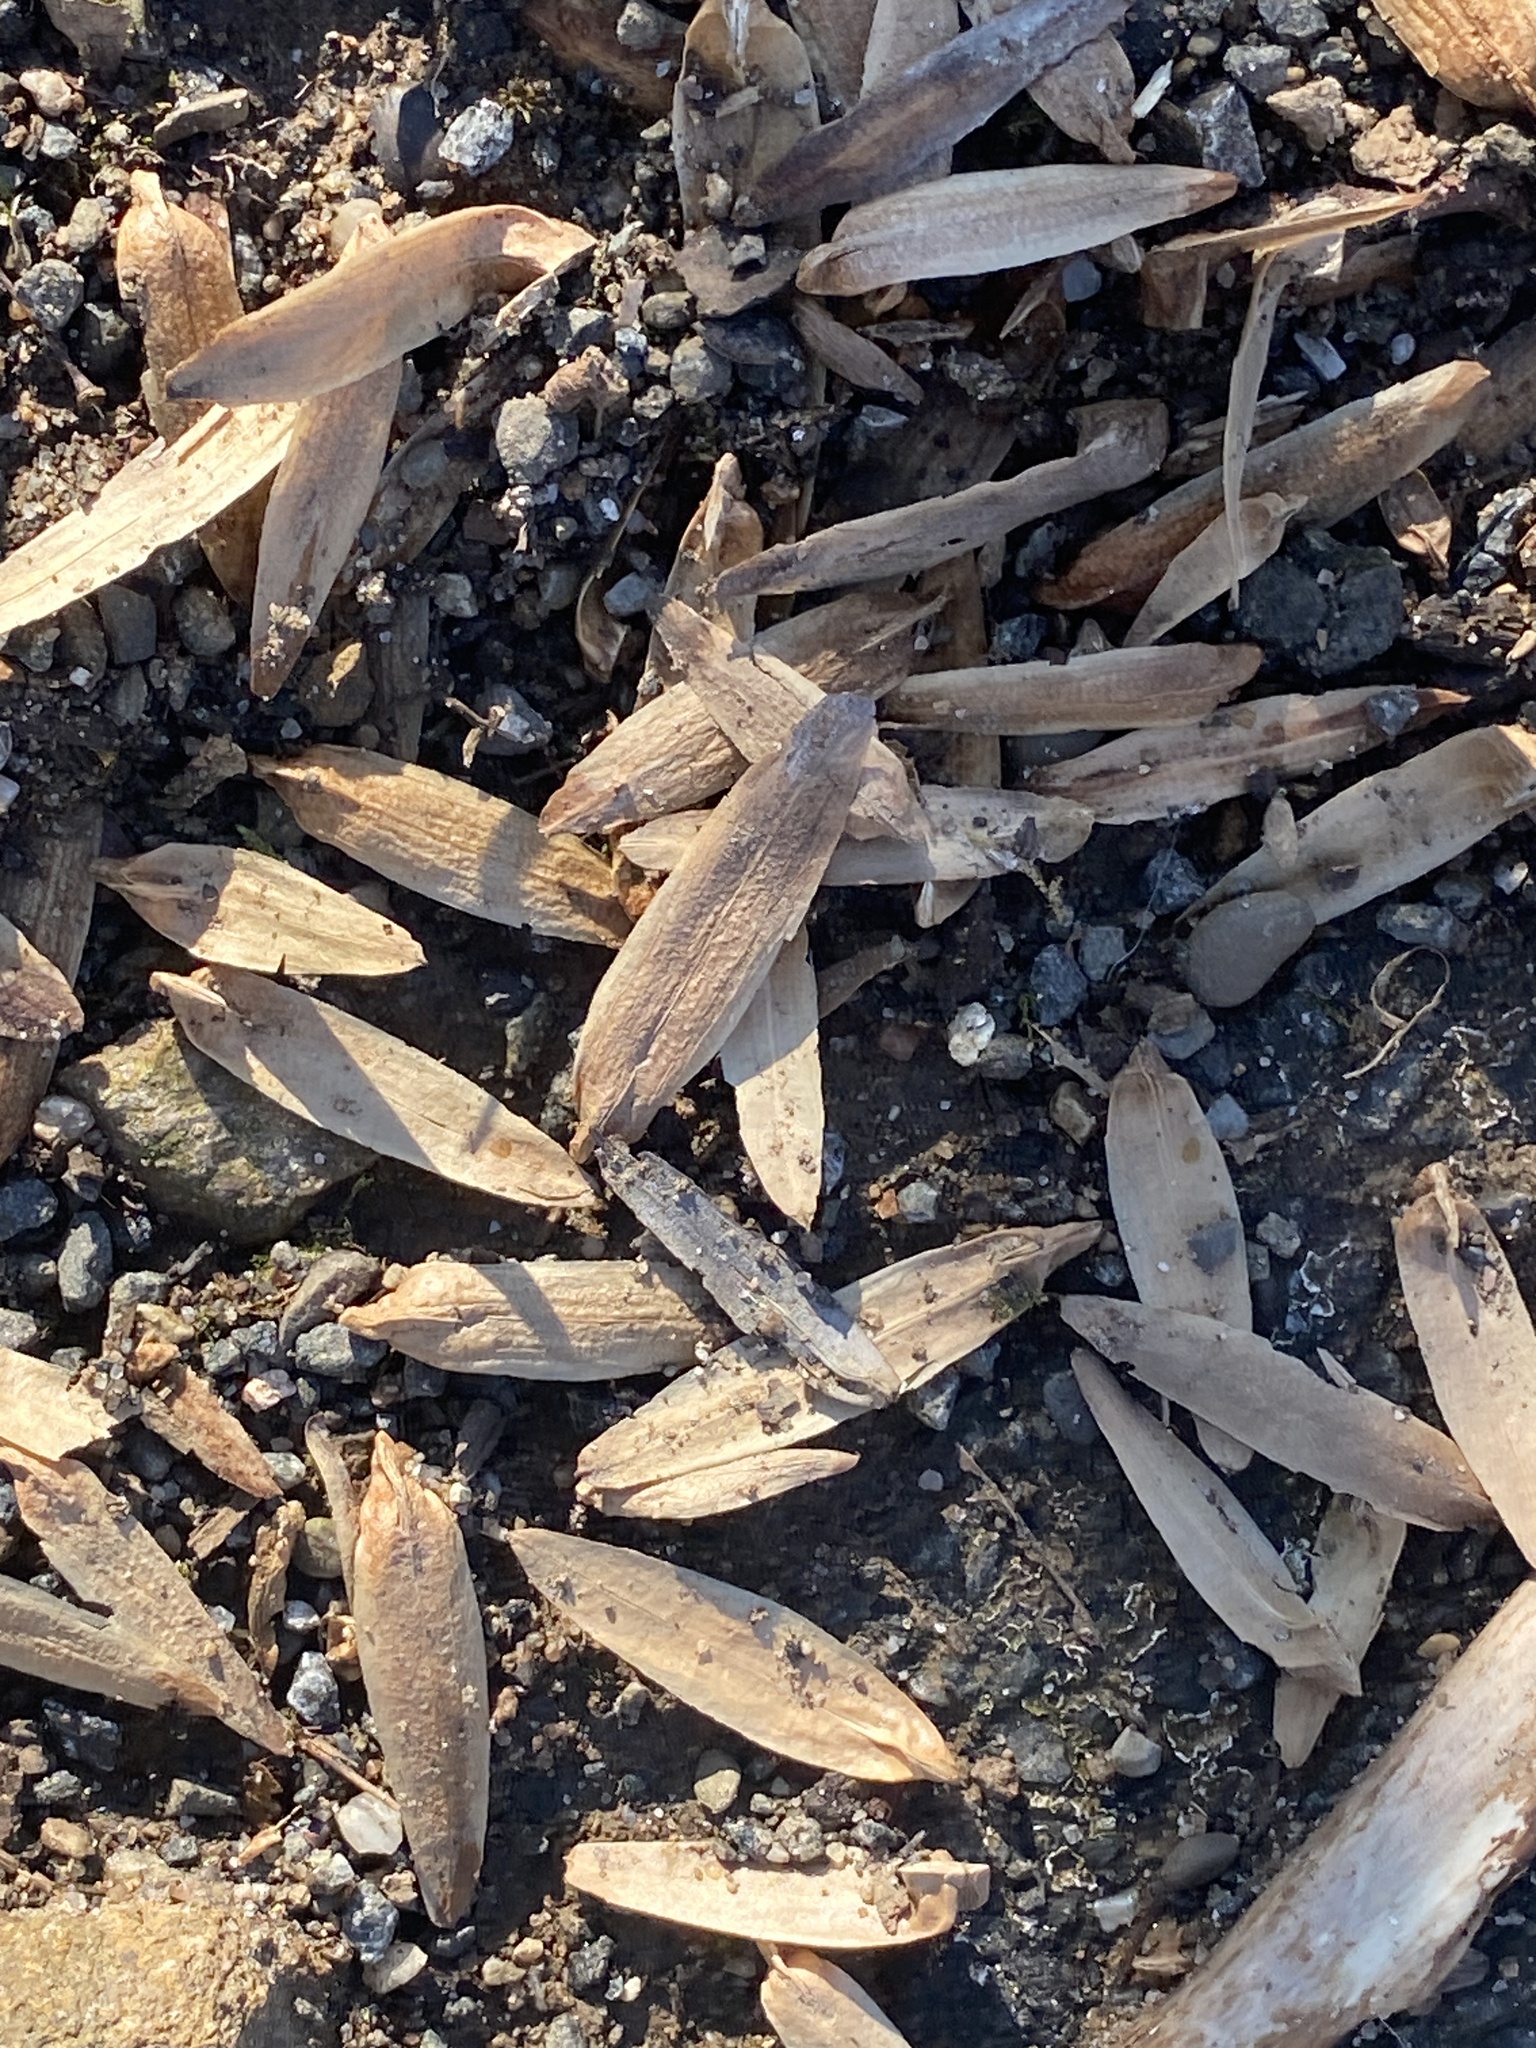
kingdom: Plantae
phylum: Tracheophyta
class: Magnoliopsida
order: Magnoliales
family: Magnoliaceae
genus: Liriodendron
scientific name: Liriodendron tulipifera
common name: Tulip tree
